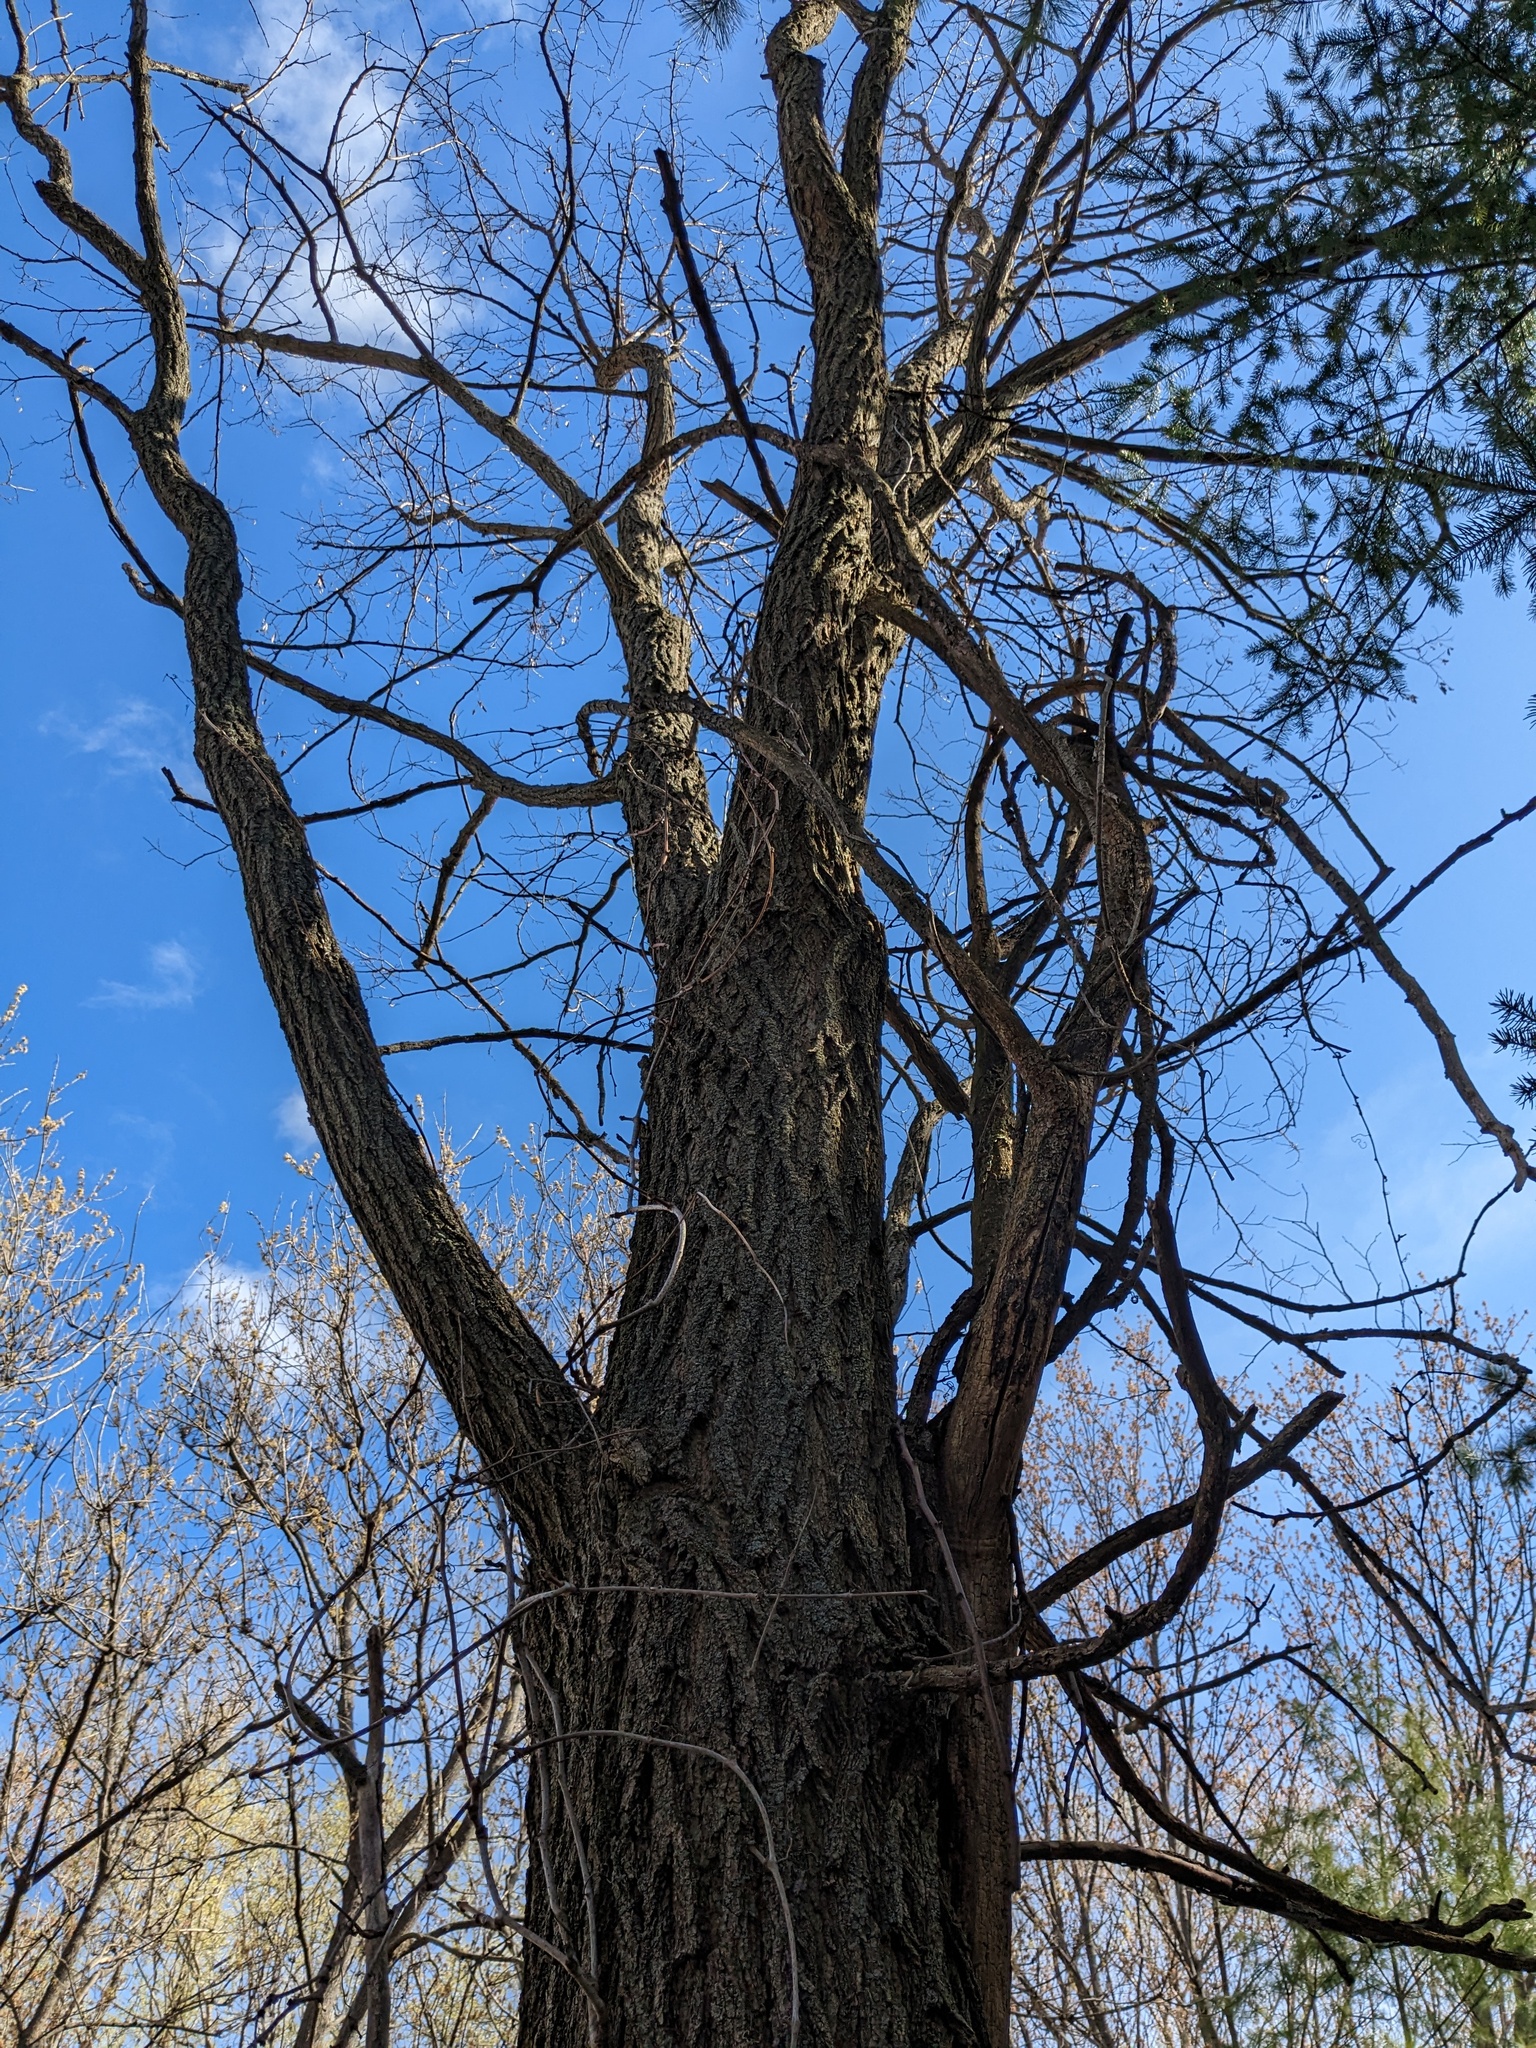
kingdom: Plantae
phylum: Tracheophyta
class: Magnoliopsida
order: Fabales
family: Fabaceae
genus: Robinia
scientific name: Robinia pseudoacacia
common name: Black locust
